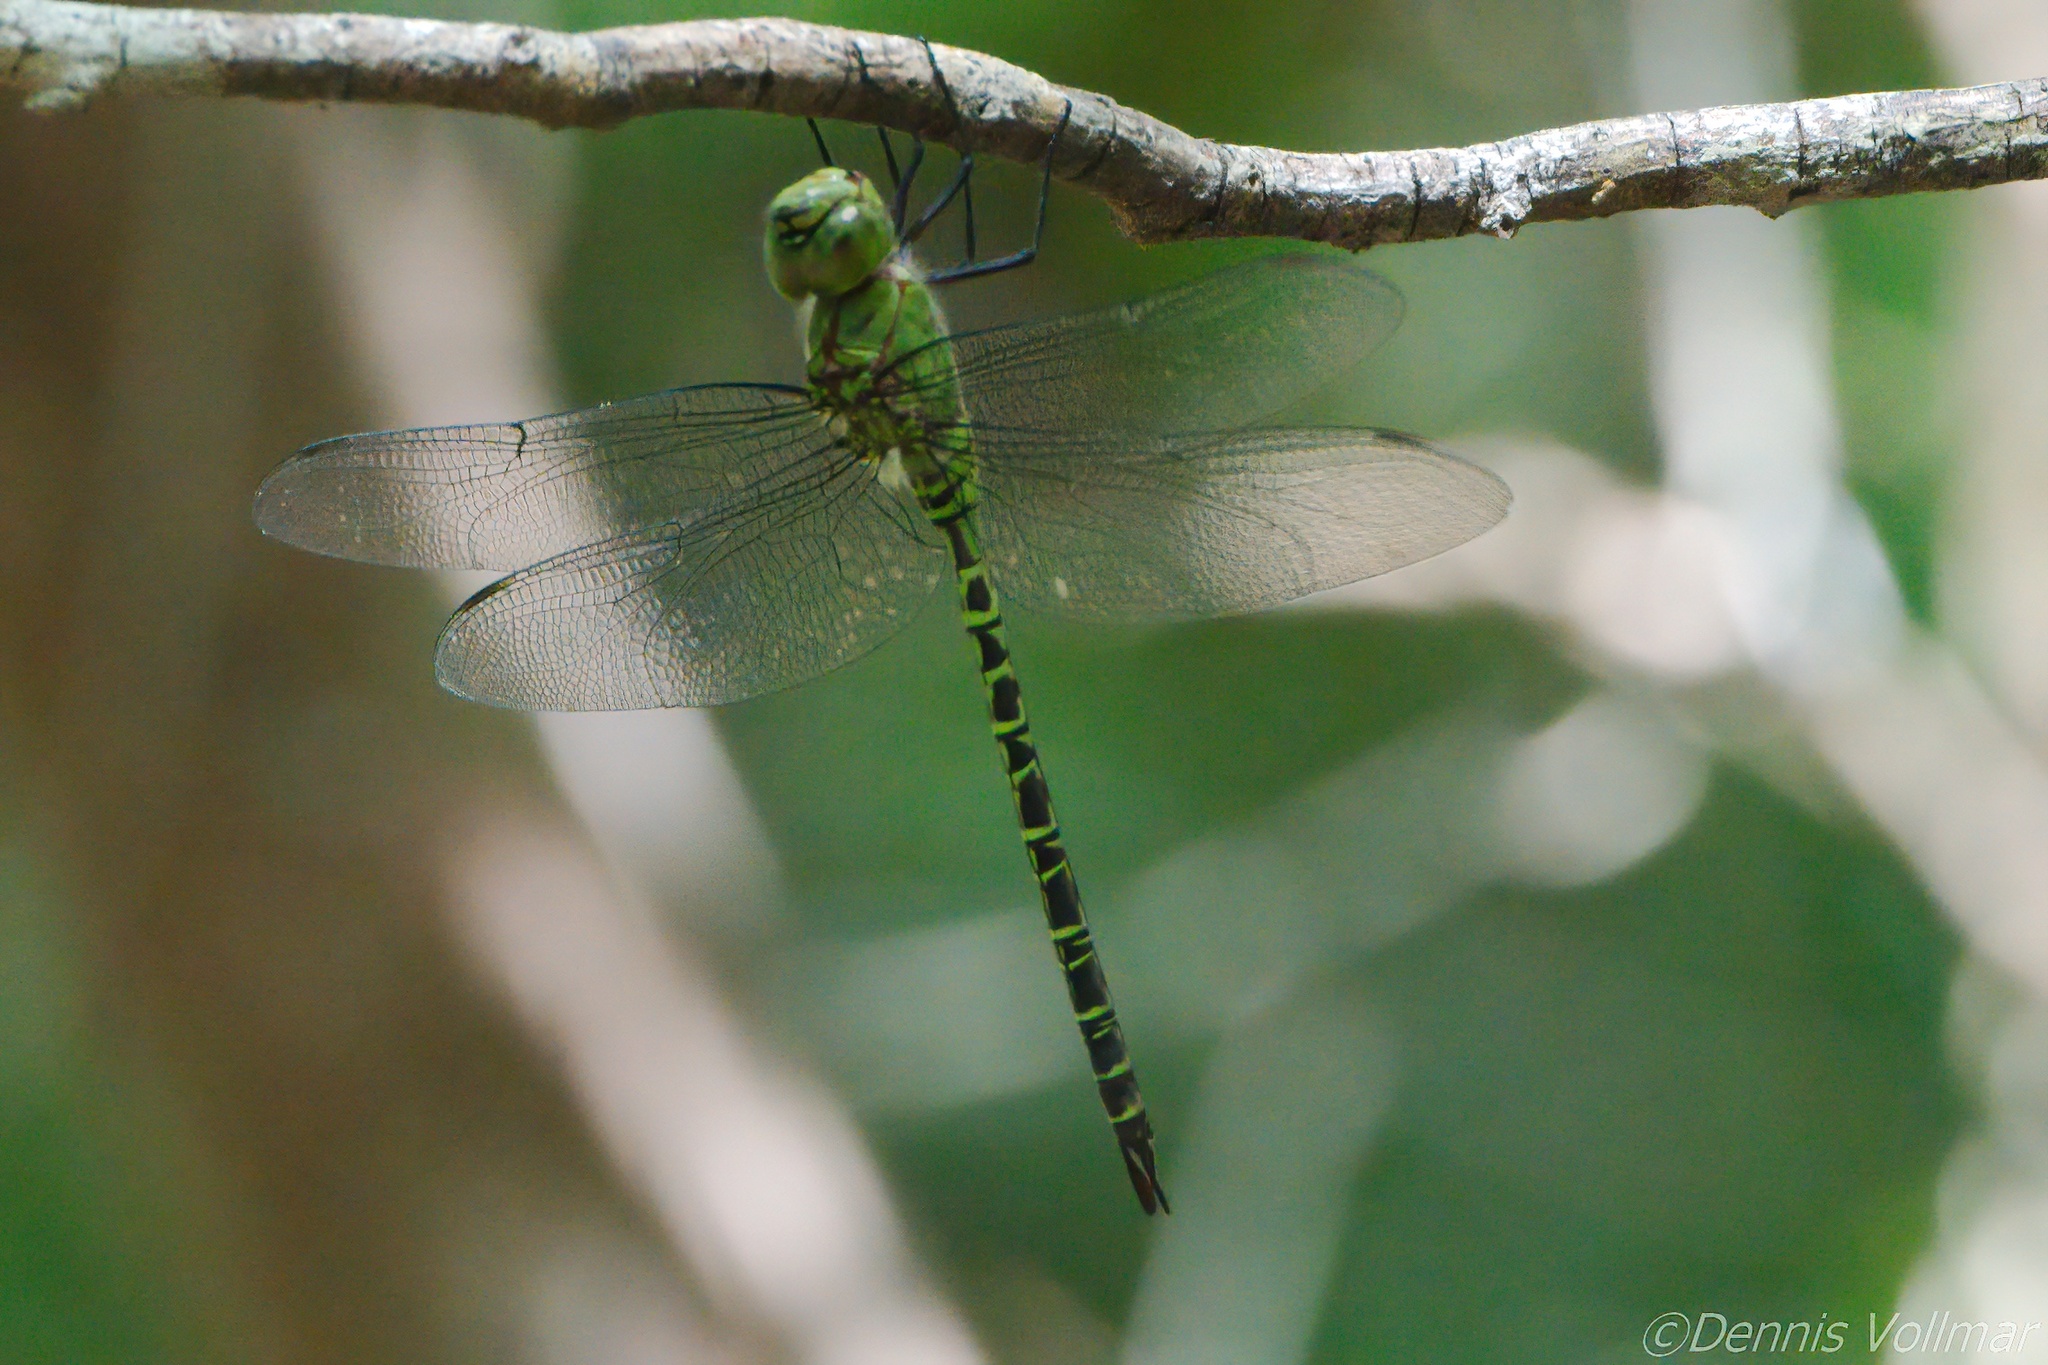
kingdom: Animalia
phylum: Arthropoda
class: Insecta
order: Odonata
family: Aeshnidae
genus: Coryphaeschna
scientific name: Coryphaeschna viriditas
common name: Mangrove darner
